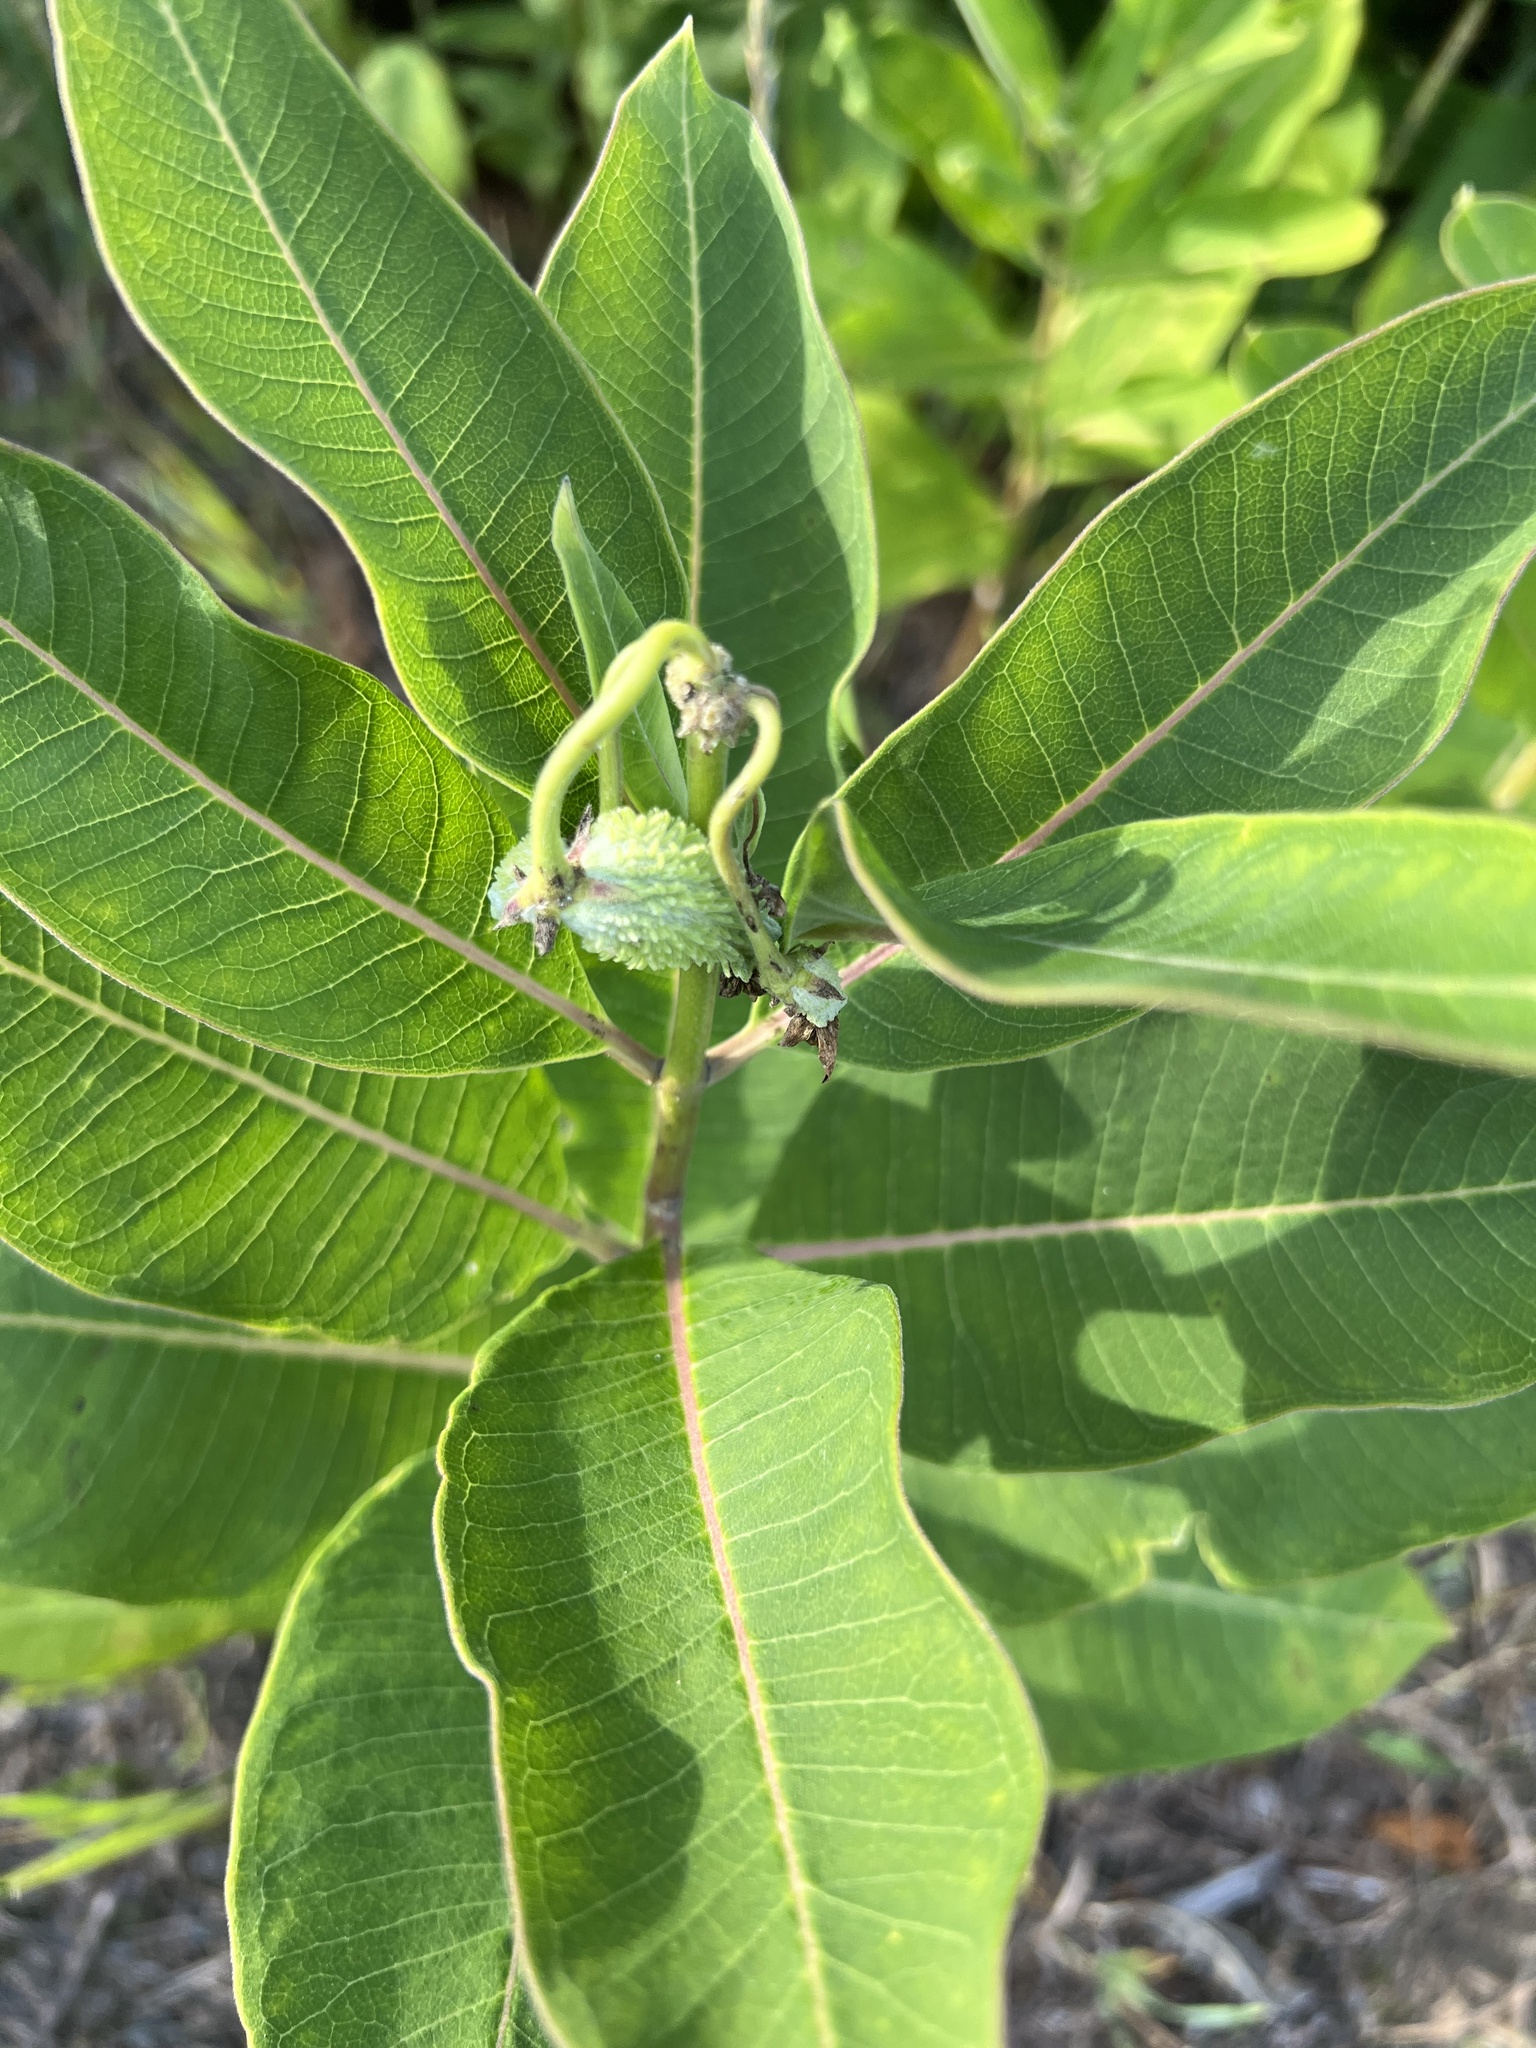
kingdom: Plantae
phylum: Tracheophyta
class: Magnoliopsida
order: Gentianales
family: Apocynaceae
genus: Asclepias
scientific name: Asclepias syriaca
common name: Common milkweed
